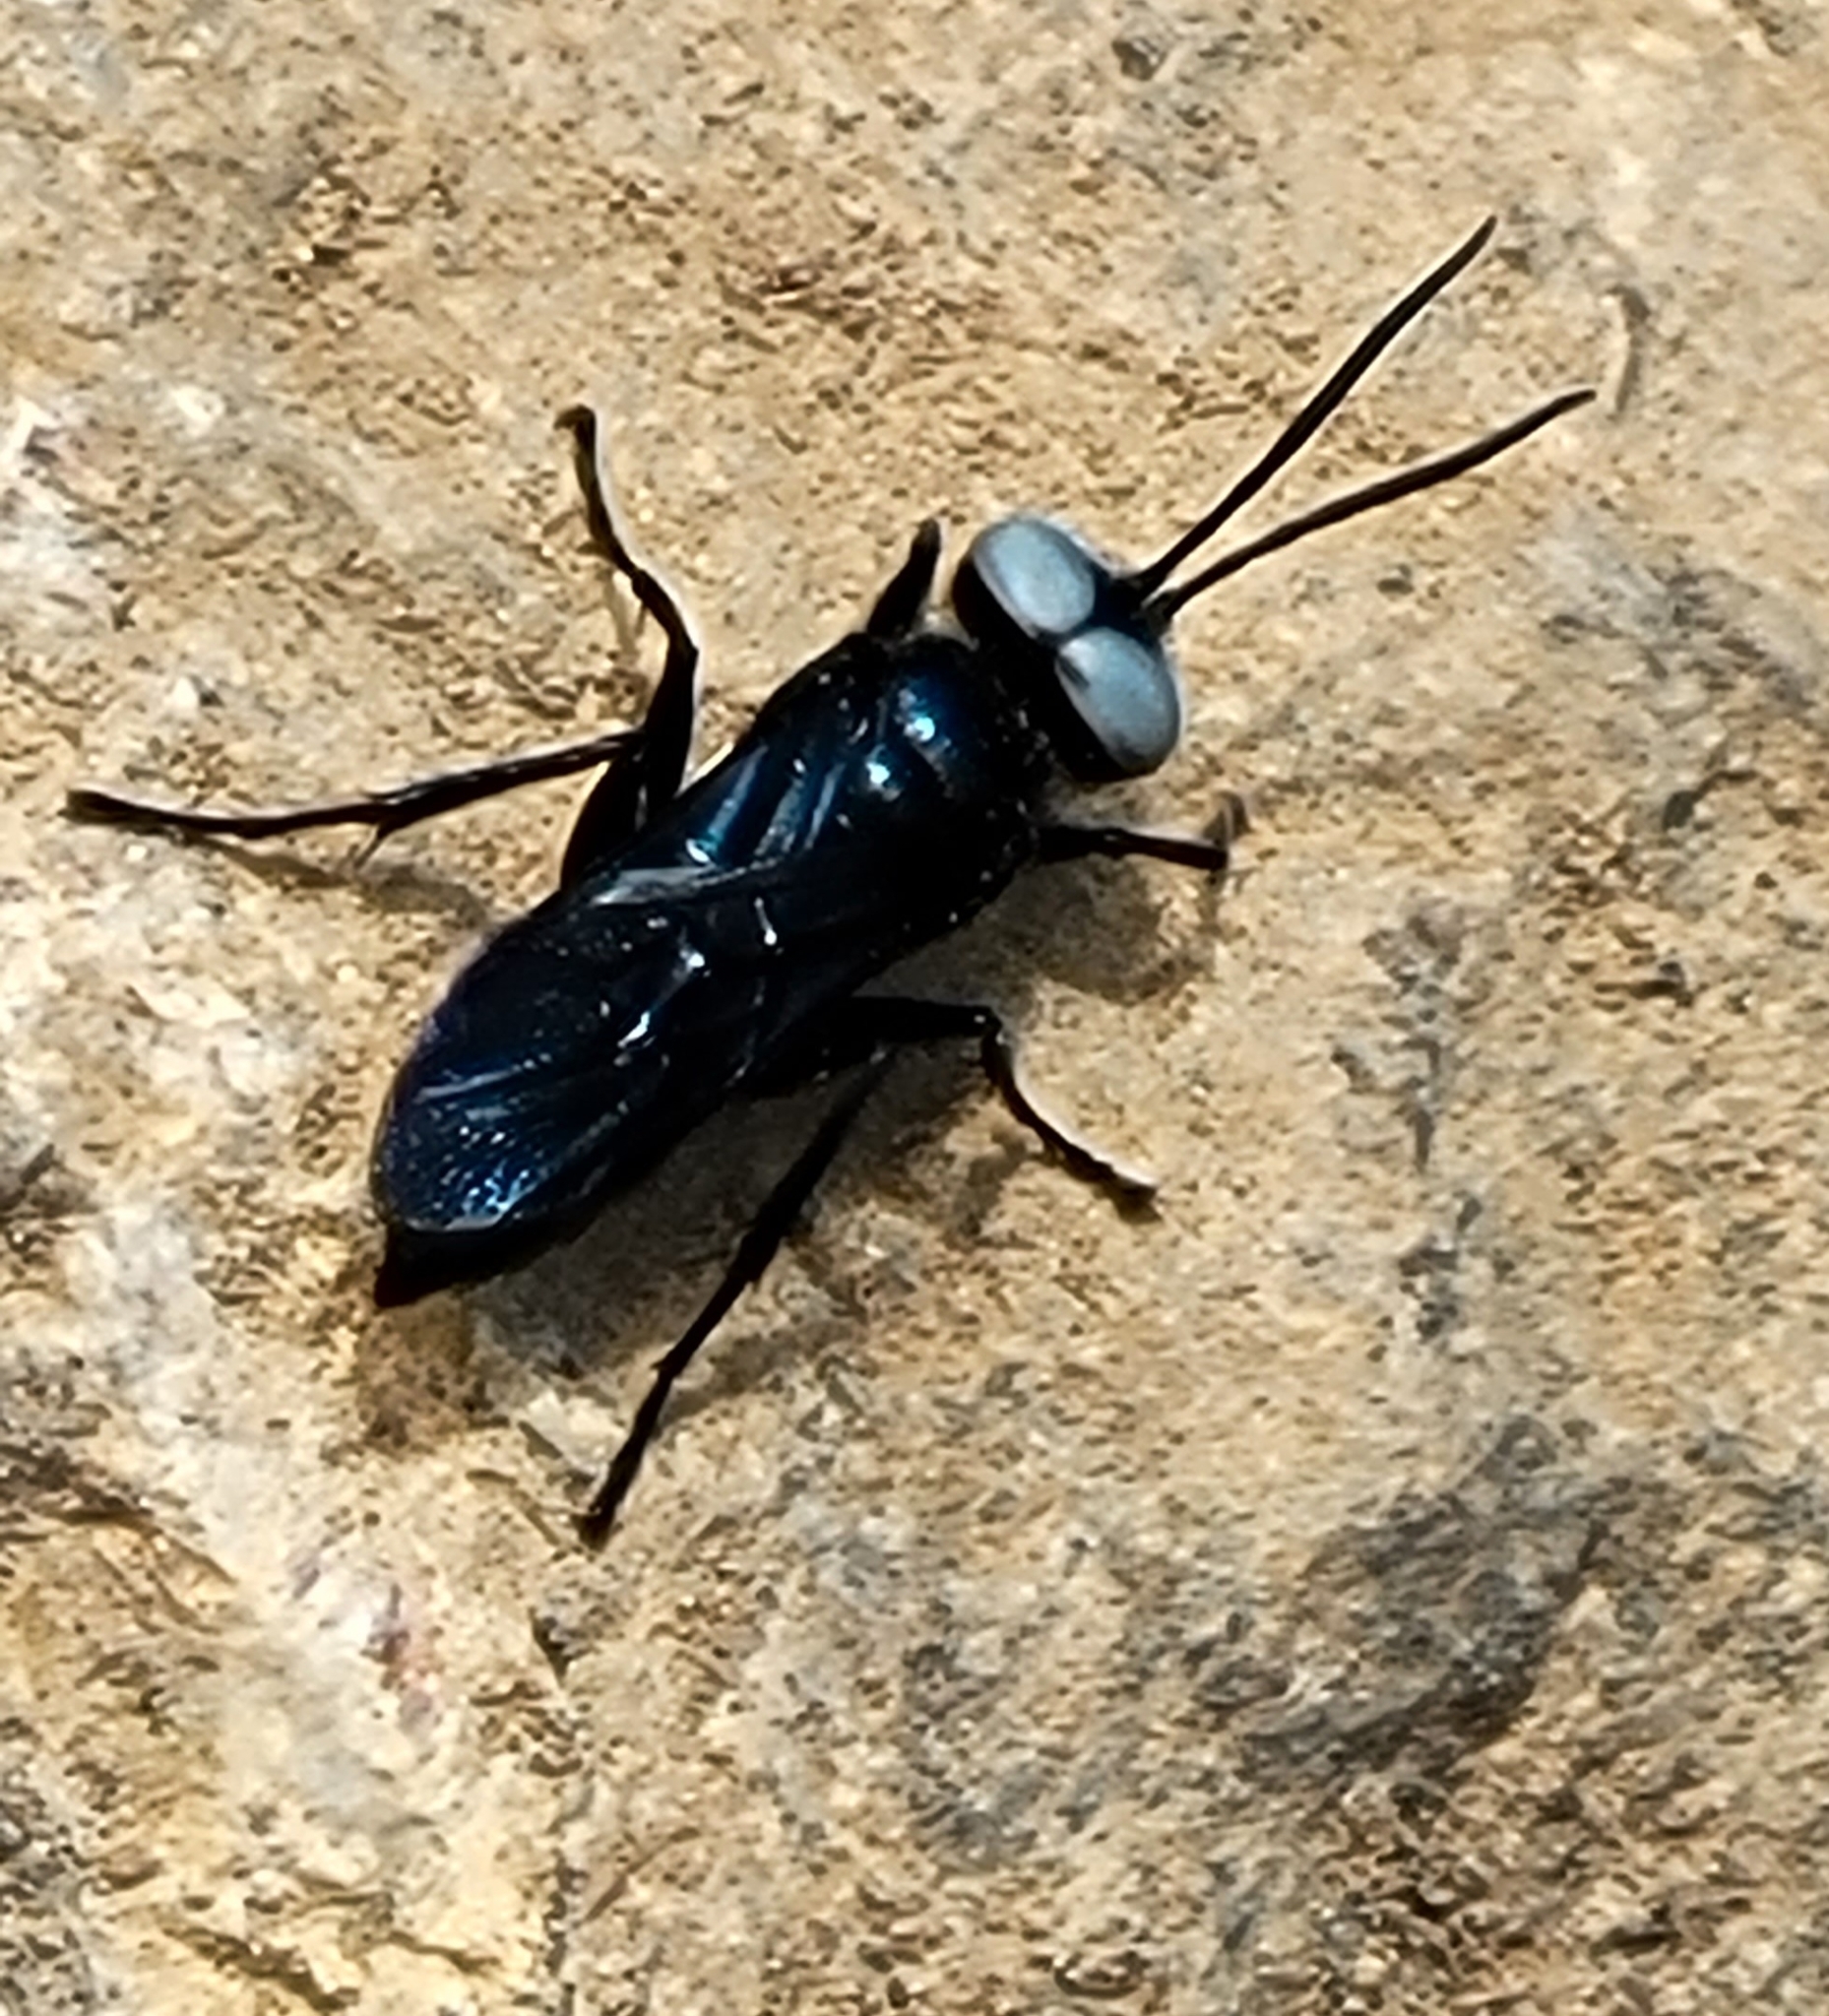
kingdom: Animalia
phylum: Arthropoda
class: Insecta
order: Hymenoptera
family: Crabronidae
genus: Dryudella
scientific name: Dryudella caerulea
